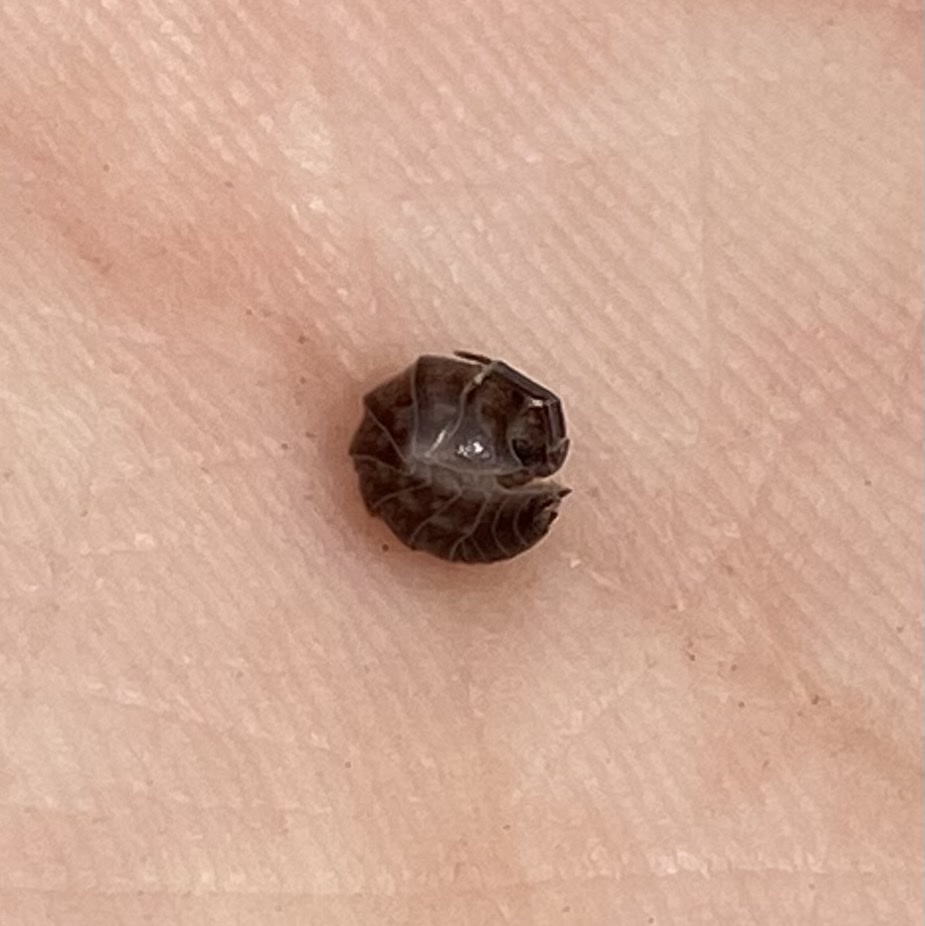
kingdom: Animalia
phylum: Arthropoda
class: Malacostraca
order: Isopoda
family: Cylisticidae
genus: Cylisticus
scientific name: Cylisticus convexus
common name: Curly woodlouse
